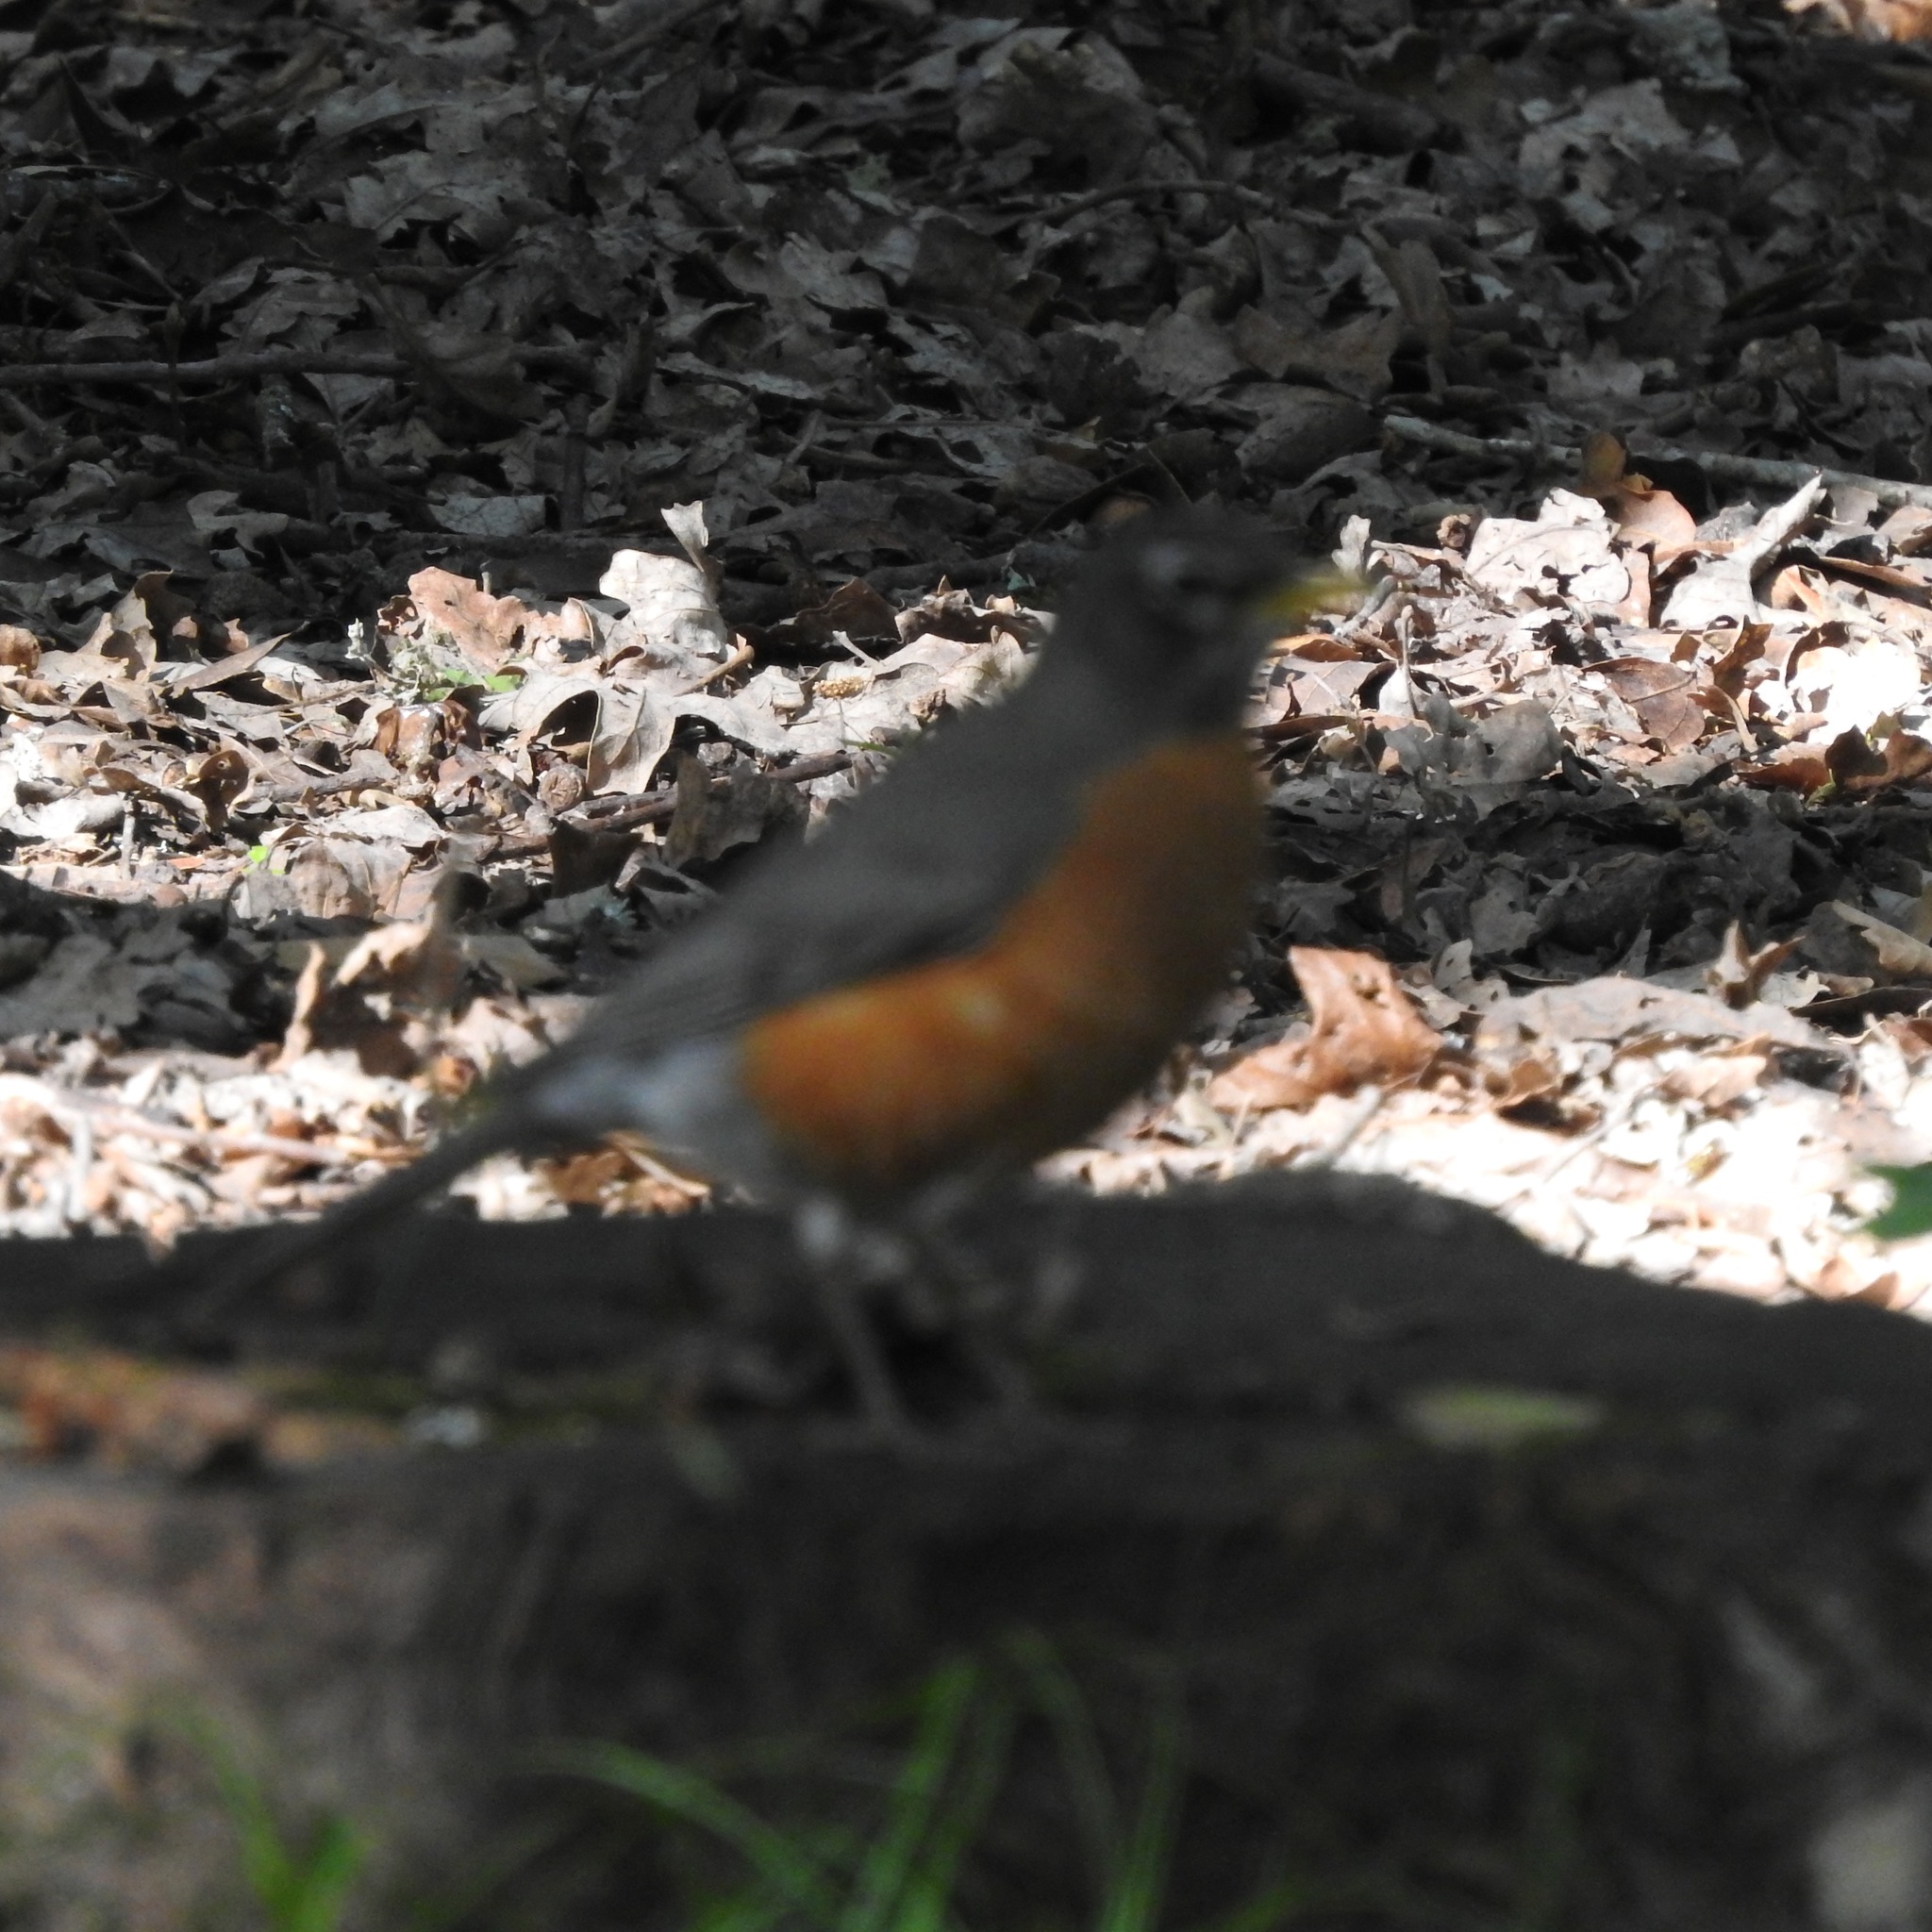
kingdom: Animalia
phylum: Chordata
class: Aves
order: Passeriformes
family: Turdidae
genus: Turdus
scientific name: Turdus migratorius
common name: American robin
